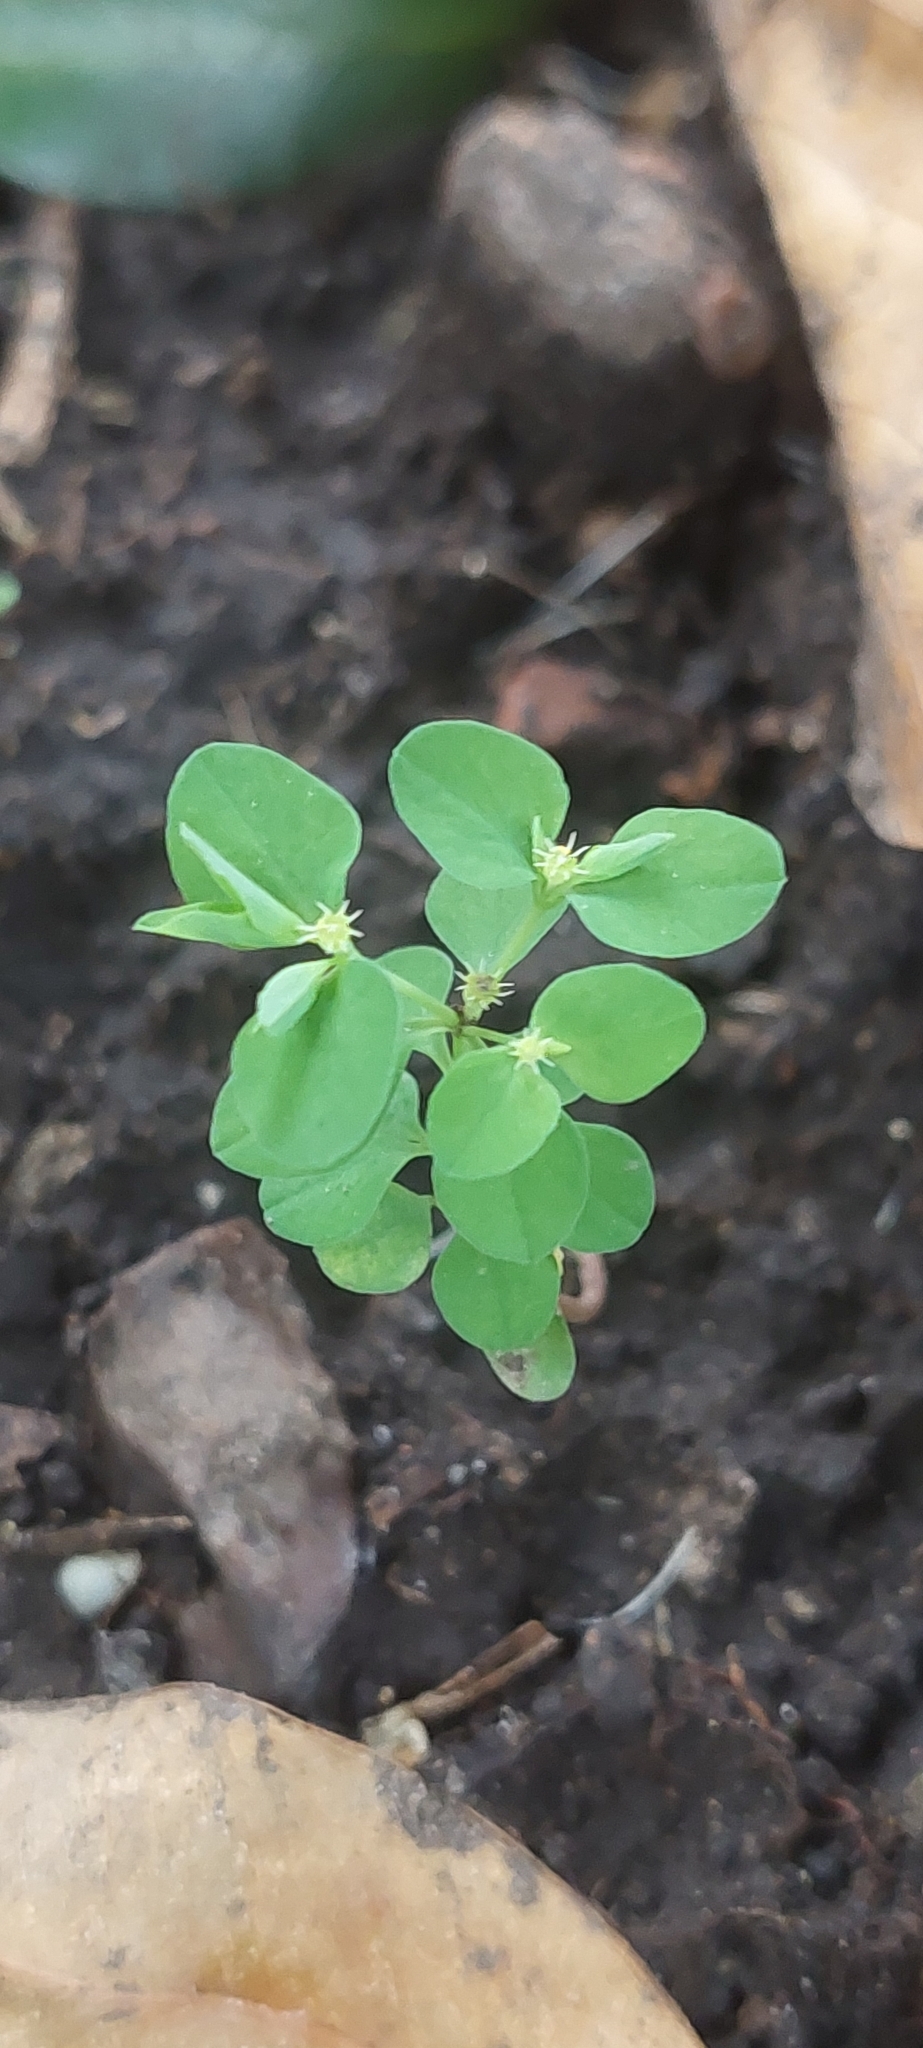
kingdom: Plantae
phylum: Tracheophyta
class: Magnoliopsida
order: Malpighiales
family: Euphorbiaceae
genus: Euphorbia
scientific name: Euphorbia peplus
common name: Petty spurge
